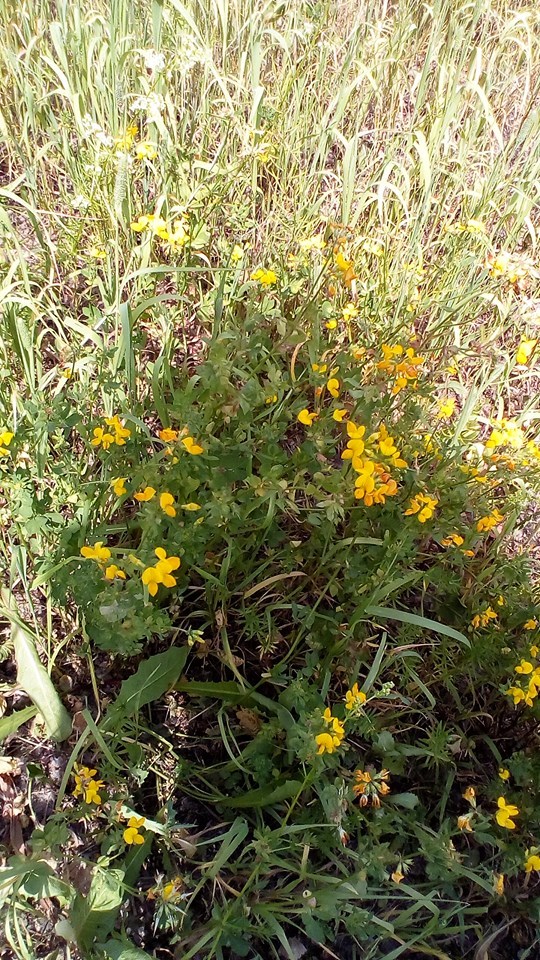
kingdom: Plantae
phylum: Tracheophyta
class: Magnoliopsida
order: Fabales
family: Fabaceae
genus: Lotus
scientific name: Lotus corniculatus
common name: Common bird's-foot-trefoil
